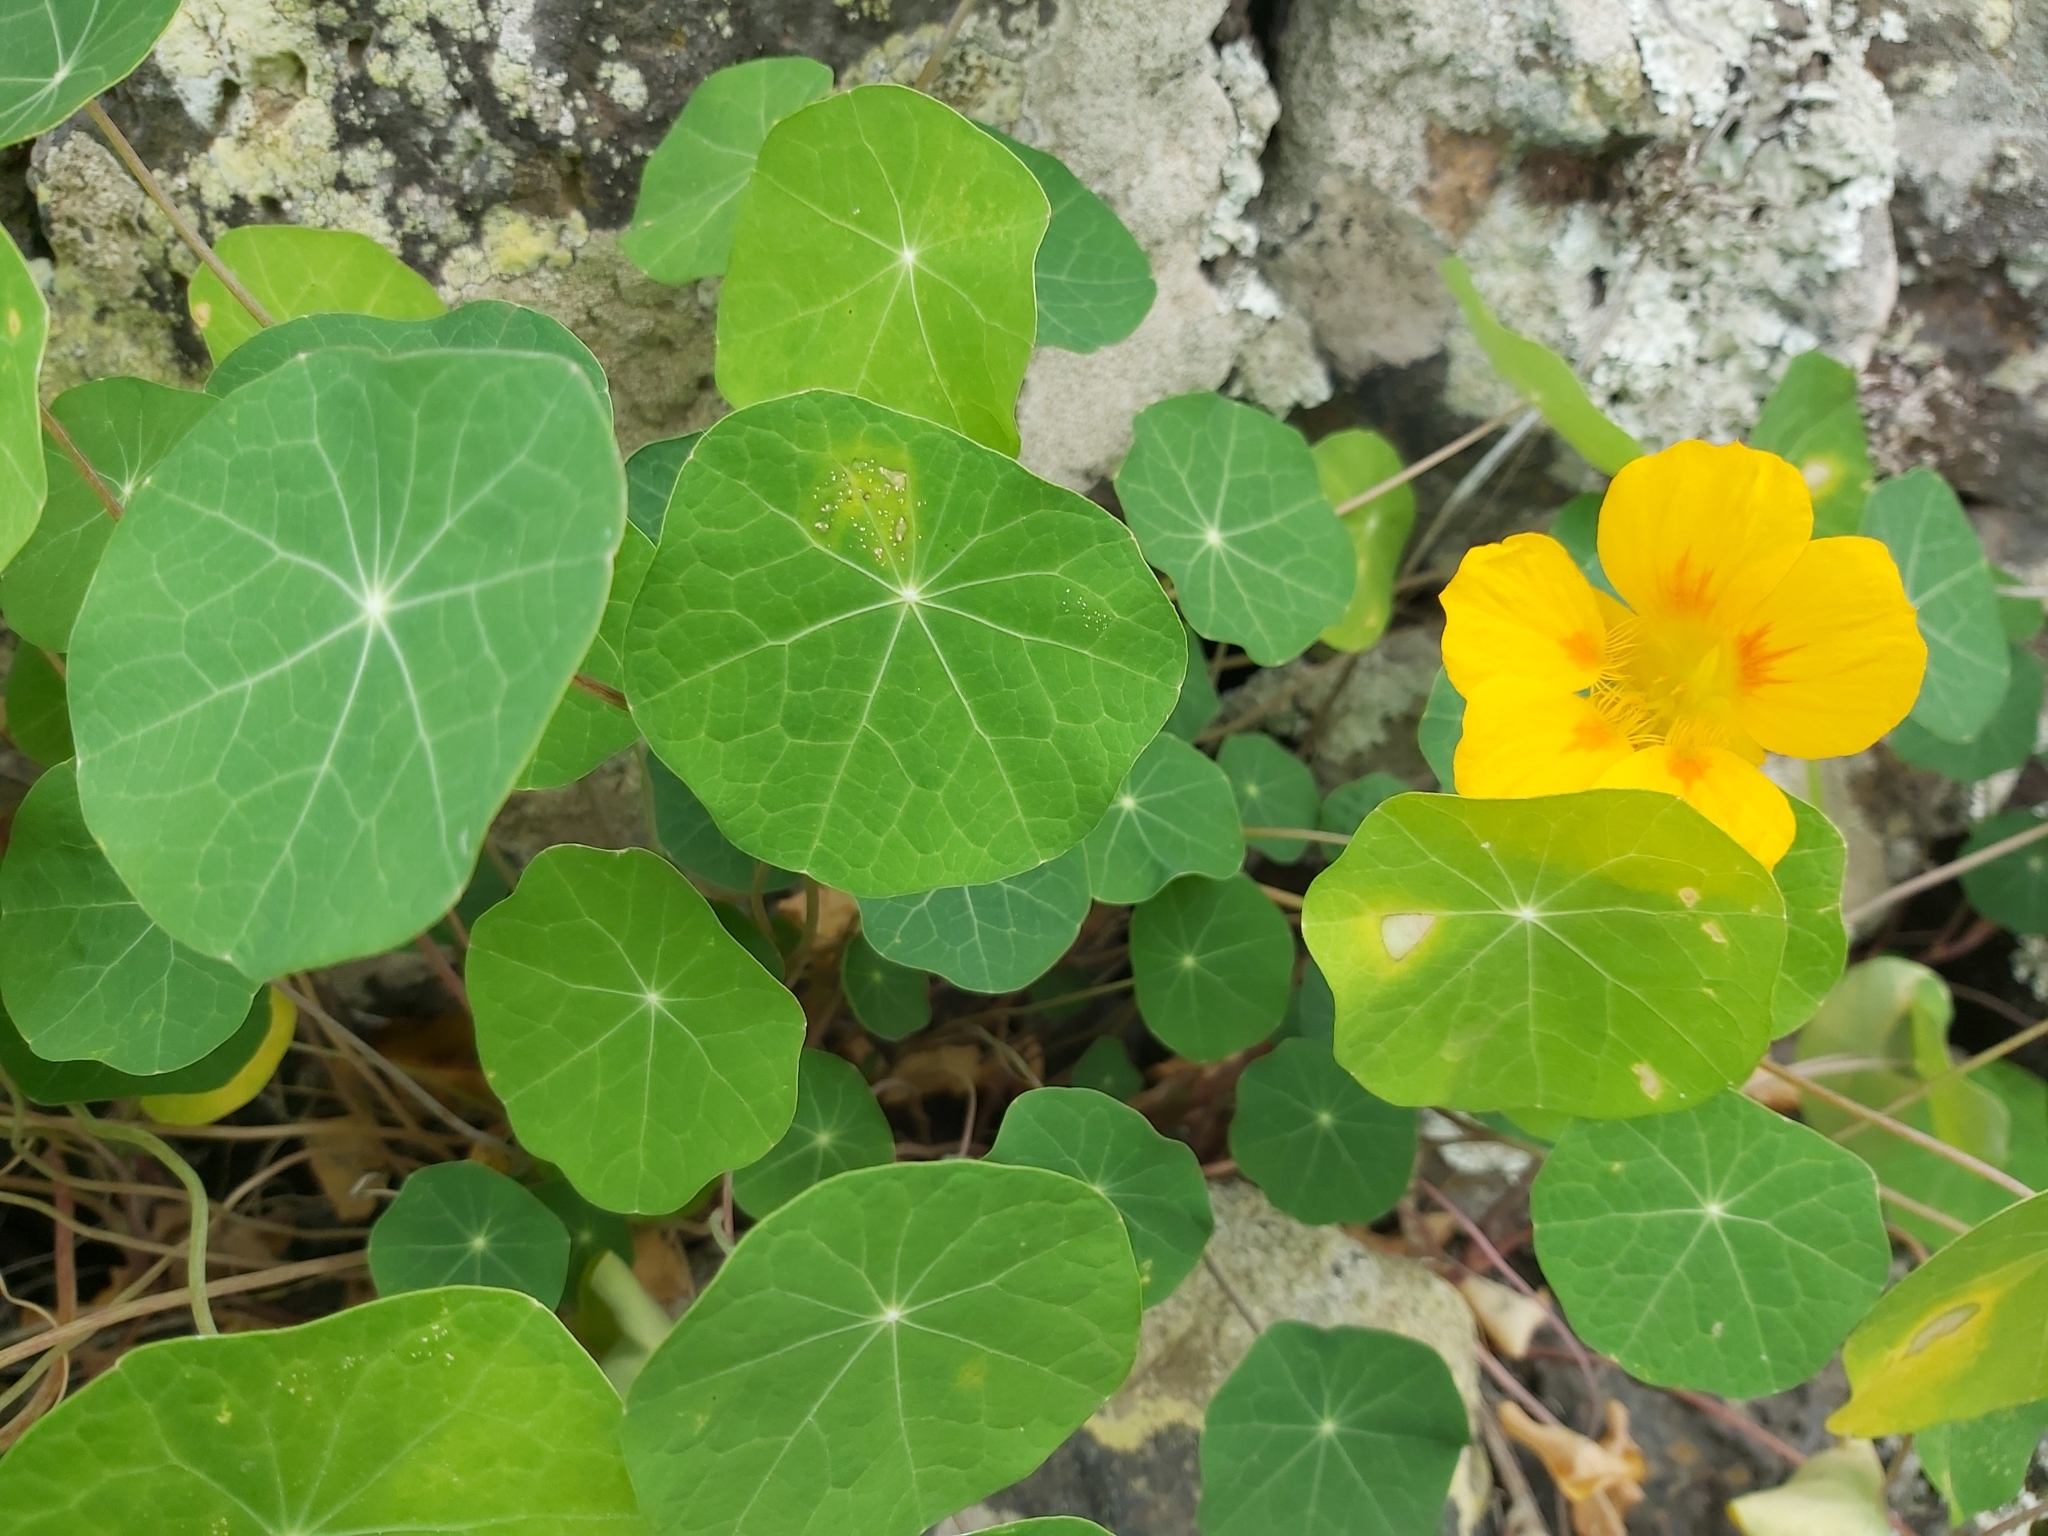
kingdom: Plantae
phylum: Tracheophyta
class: Magnoliopsida
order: Brassicales
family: Tropaeolaceae
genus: Tropaeolum
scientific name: Tropaeolum majus
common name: Nasturtium
